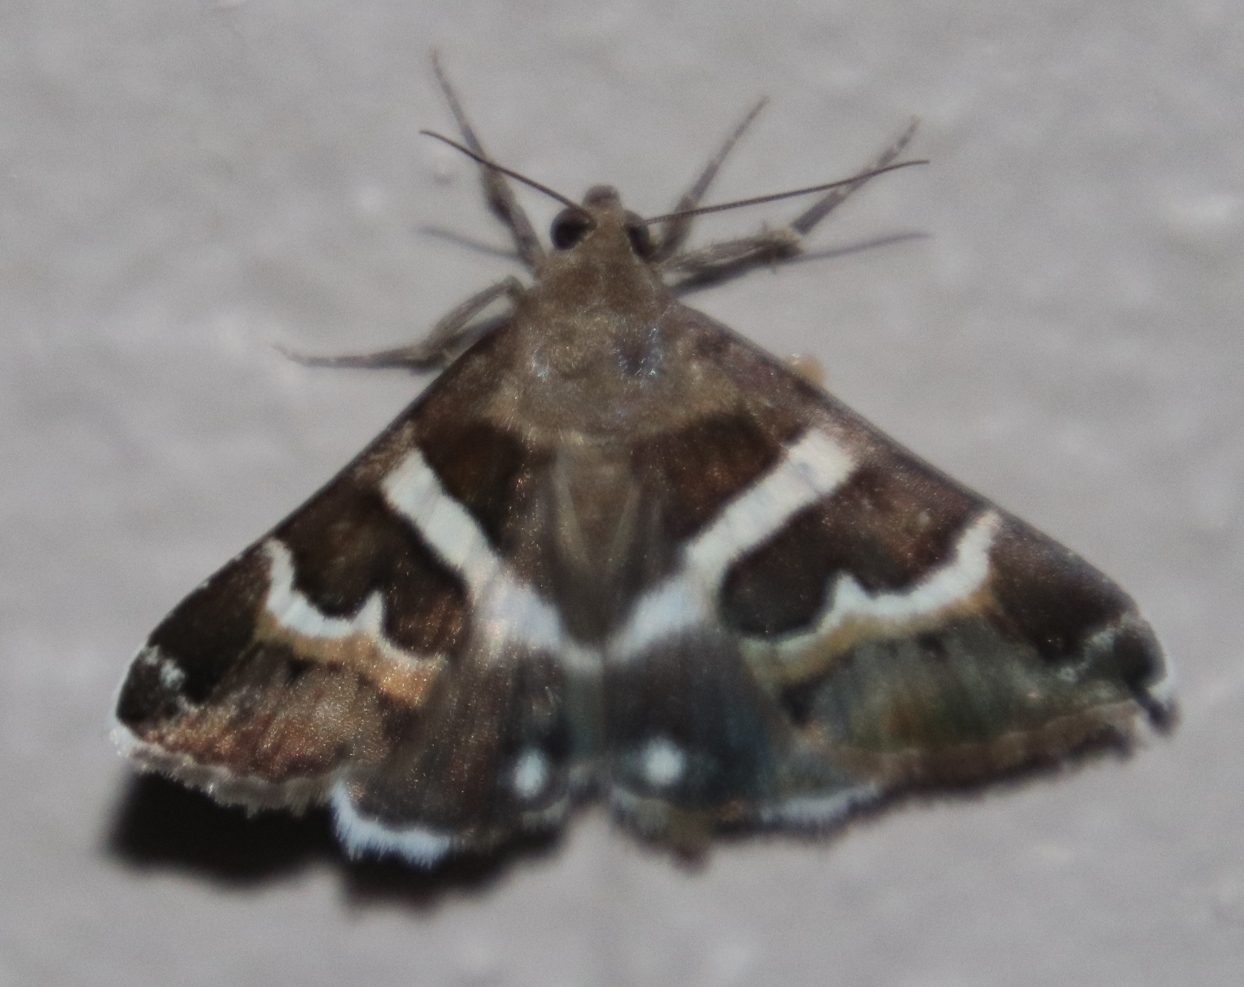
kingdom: Animalia
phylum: Arthropoda
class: Insecta
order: Lepidoptera
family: Erebidae
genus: Grammodes
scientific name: Grammodes stolida
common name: Geometrician
